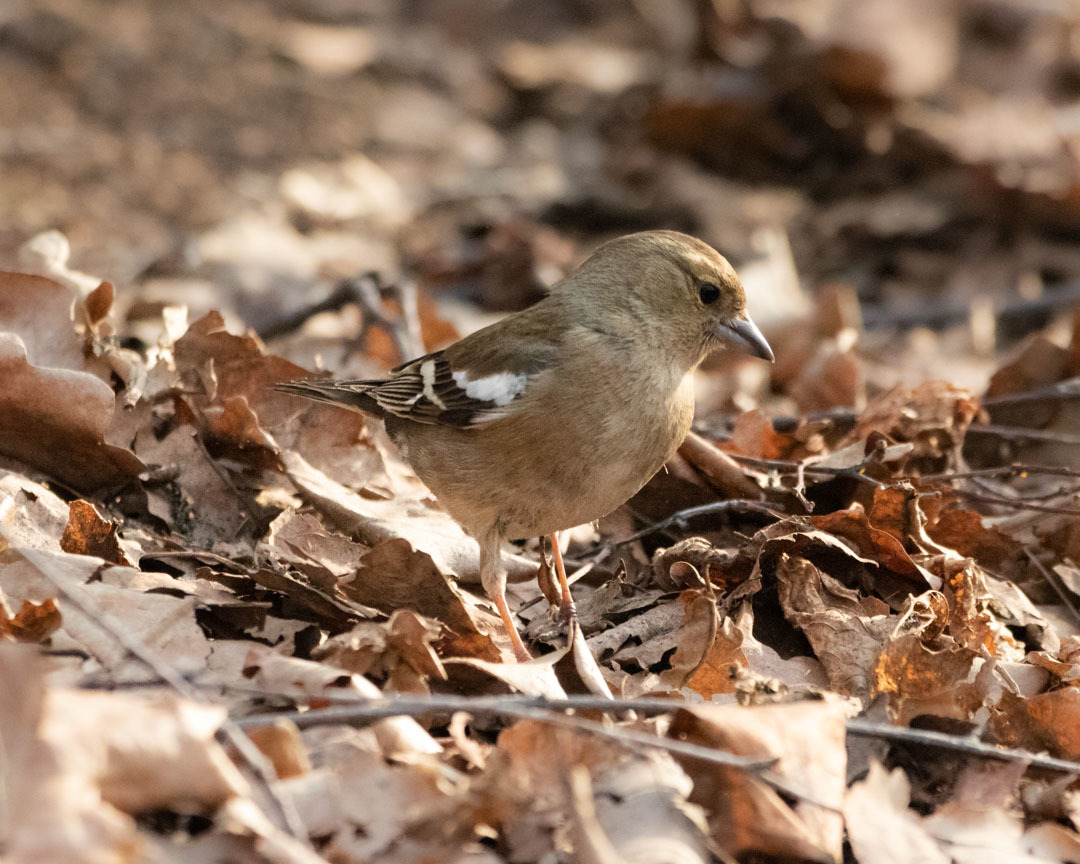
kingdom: Animalia
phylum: Chordata
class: Aves
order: Passeriformes
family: Fringillidae
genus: Fringilla
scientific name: Fringilla coelebs
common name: Common chaffinch
